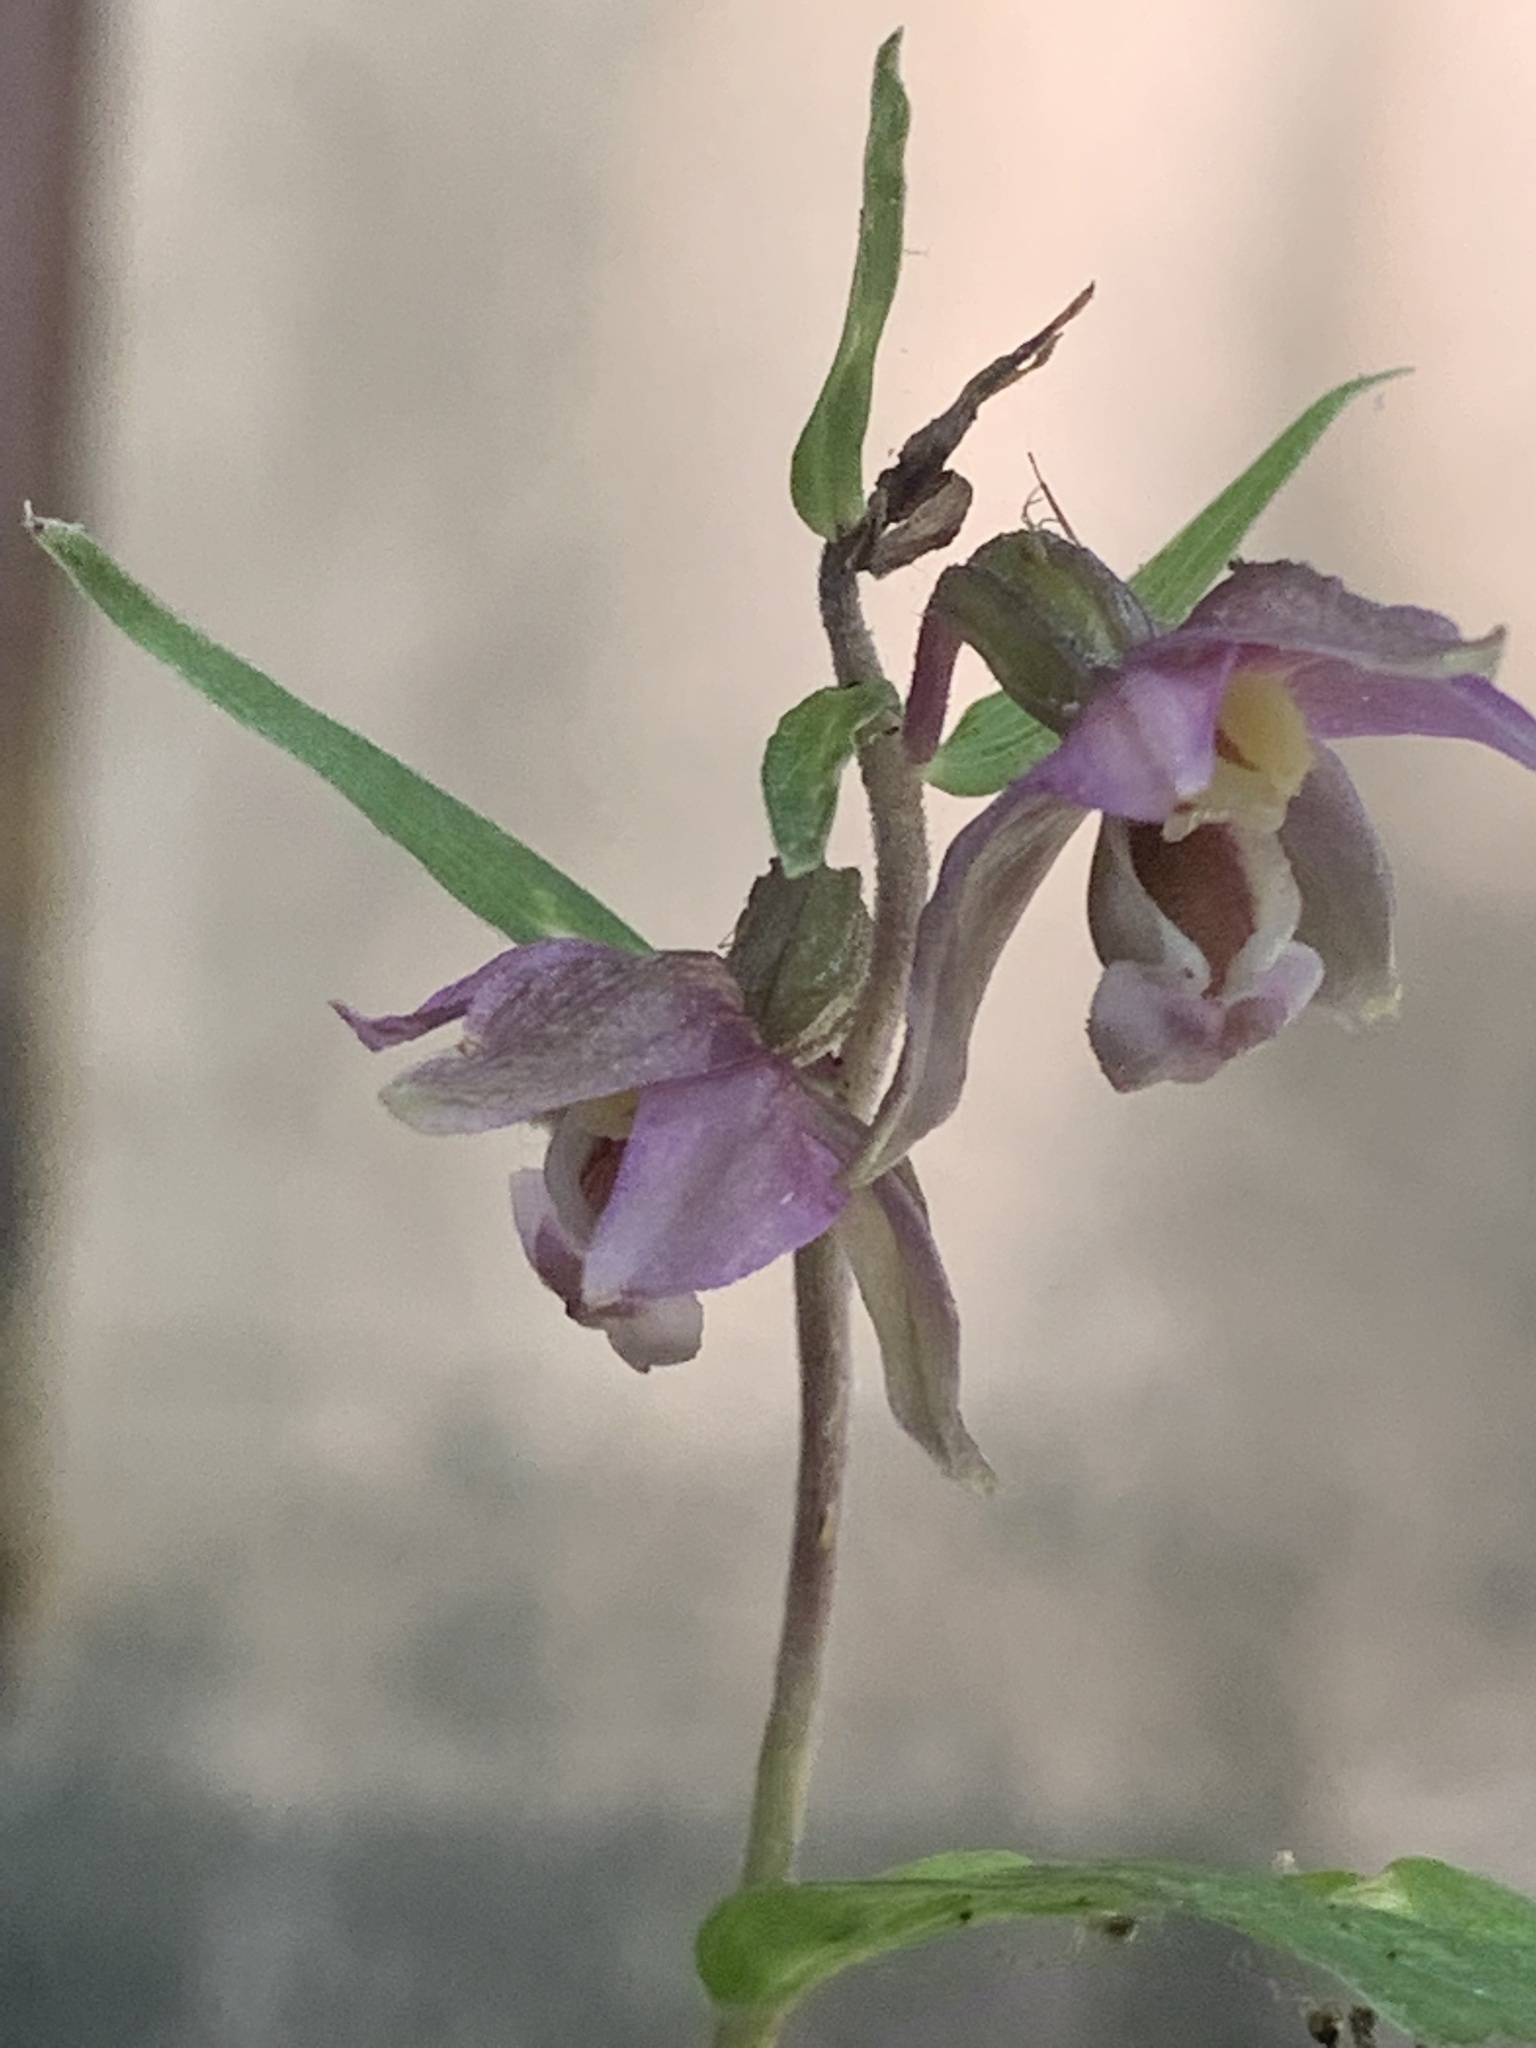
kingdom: Plantae
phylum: Tracheophyta
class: Liliopsida
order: Asparagales
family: Orchidaceae
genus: Epipactis
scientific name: Epipactis helleborine
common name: Broad-leaved helleborine
